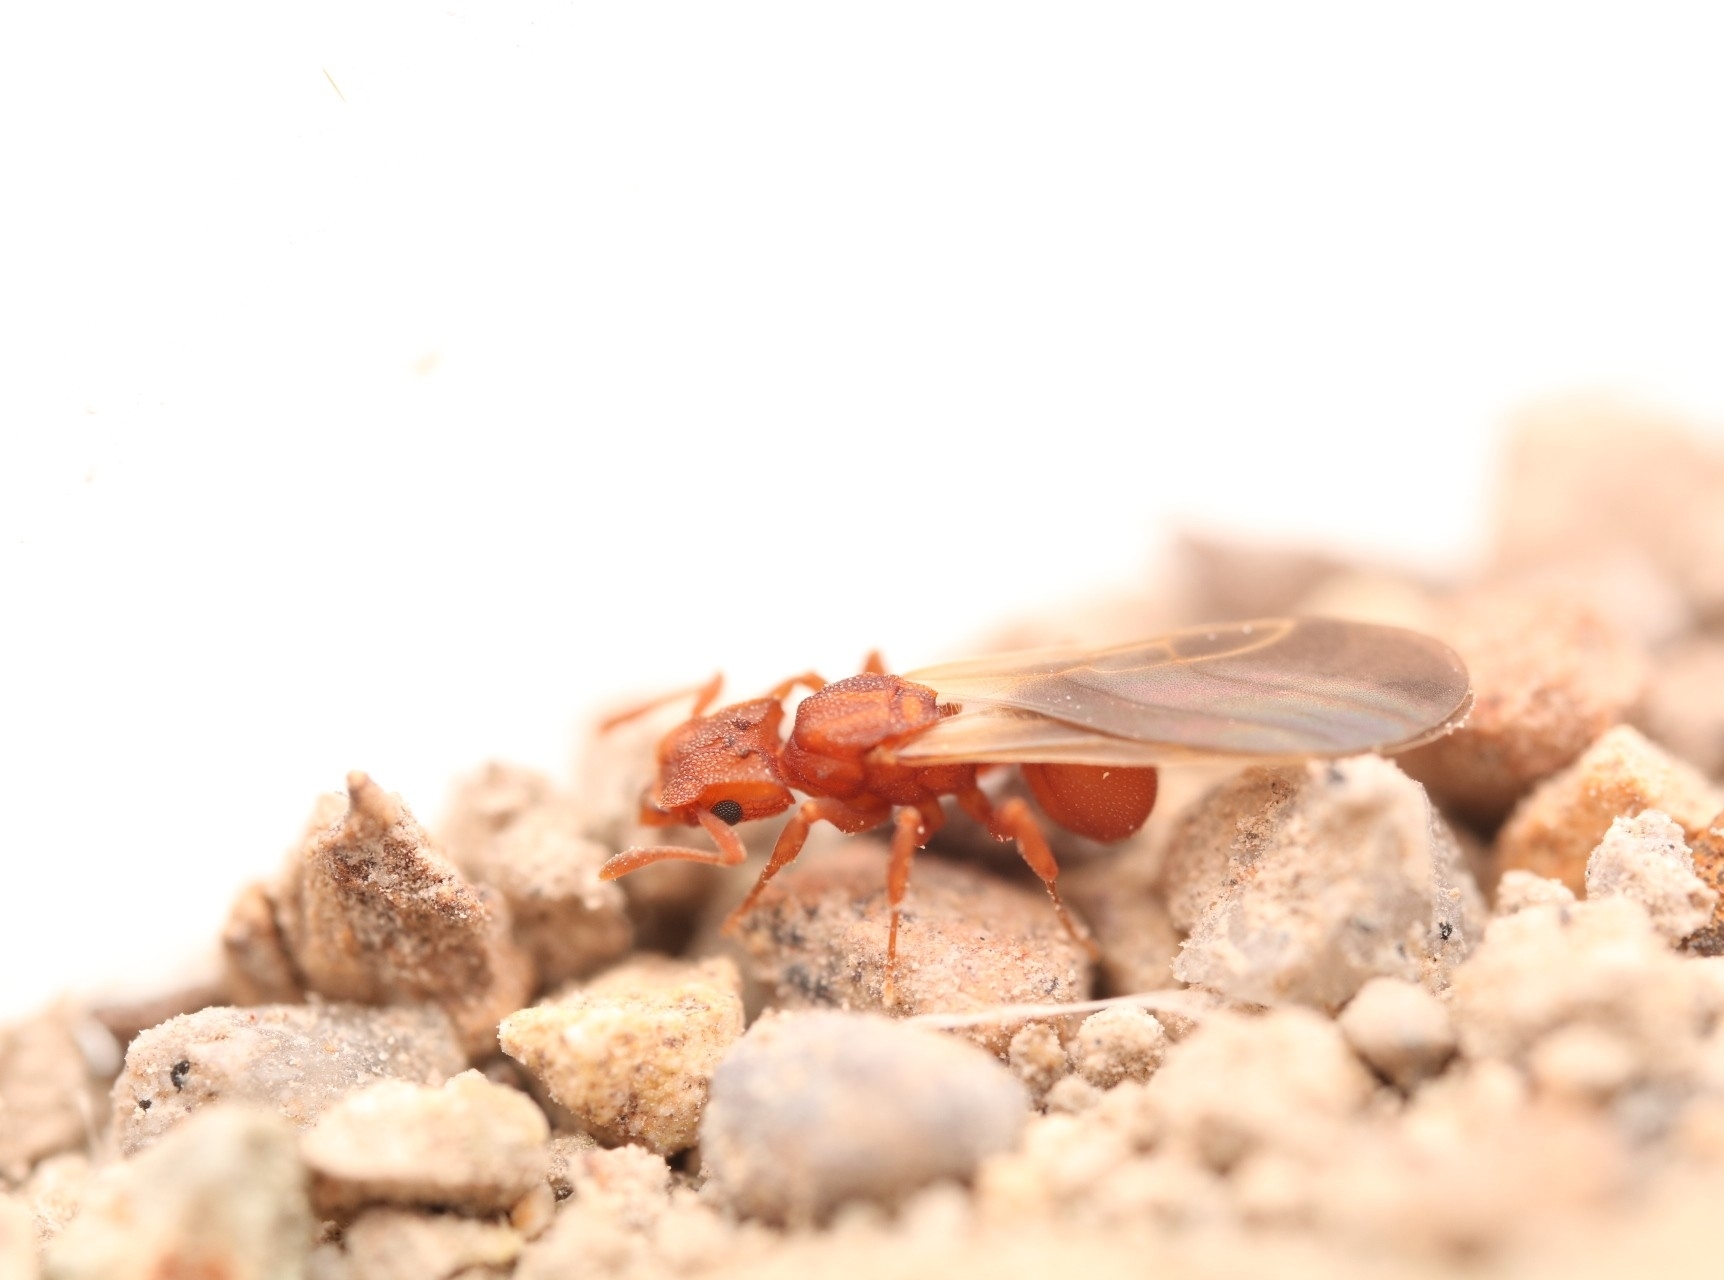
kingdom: Animalia
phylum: Arthropoda
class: Insecta
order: Hymenoptera
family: Formicidae
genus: Cyphomyrmex
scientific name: Cyphomyrmex wheeleri
